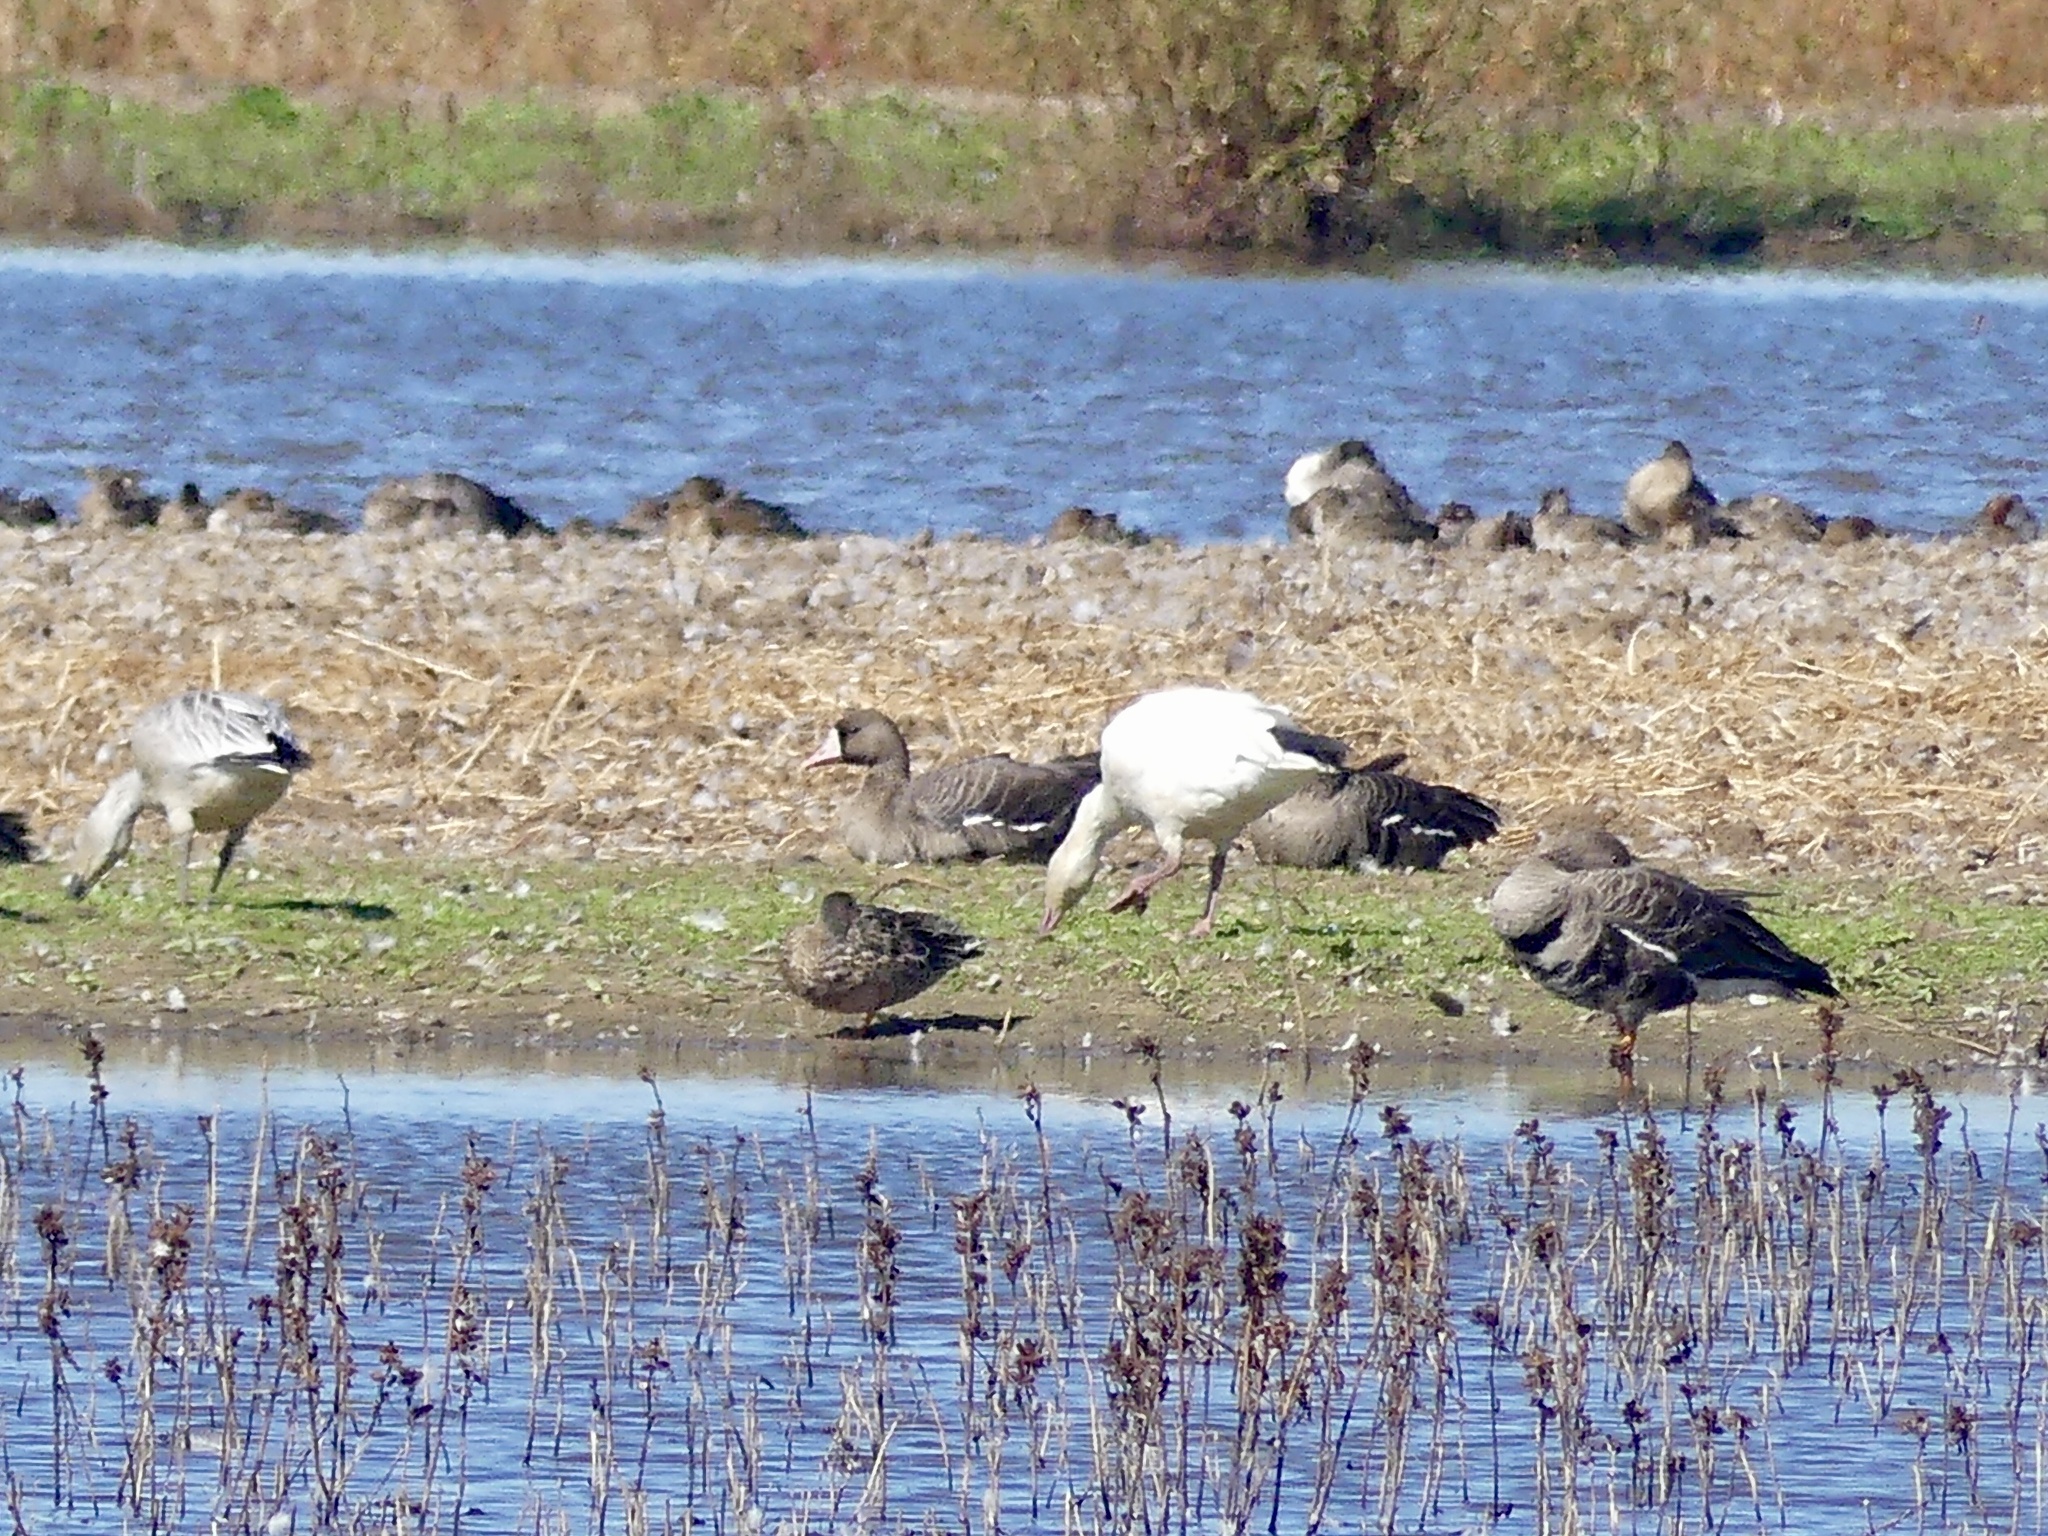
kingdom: Animalia
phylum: Chordata
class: Aves
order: Anseriformes
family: Anatidae
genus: Anser
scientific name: Anser caerulescens
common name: Snow goose
